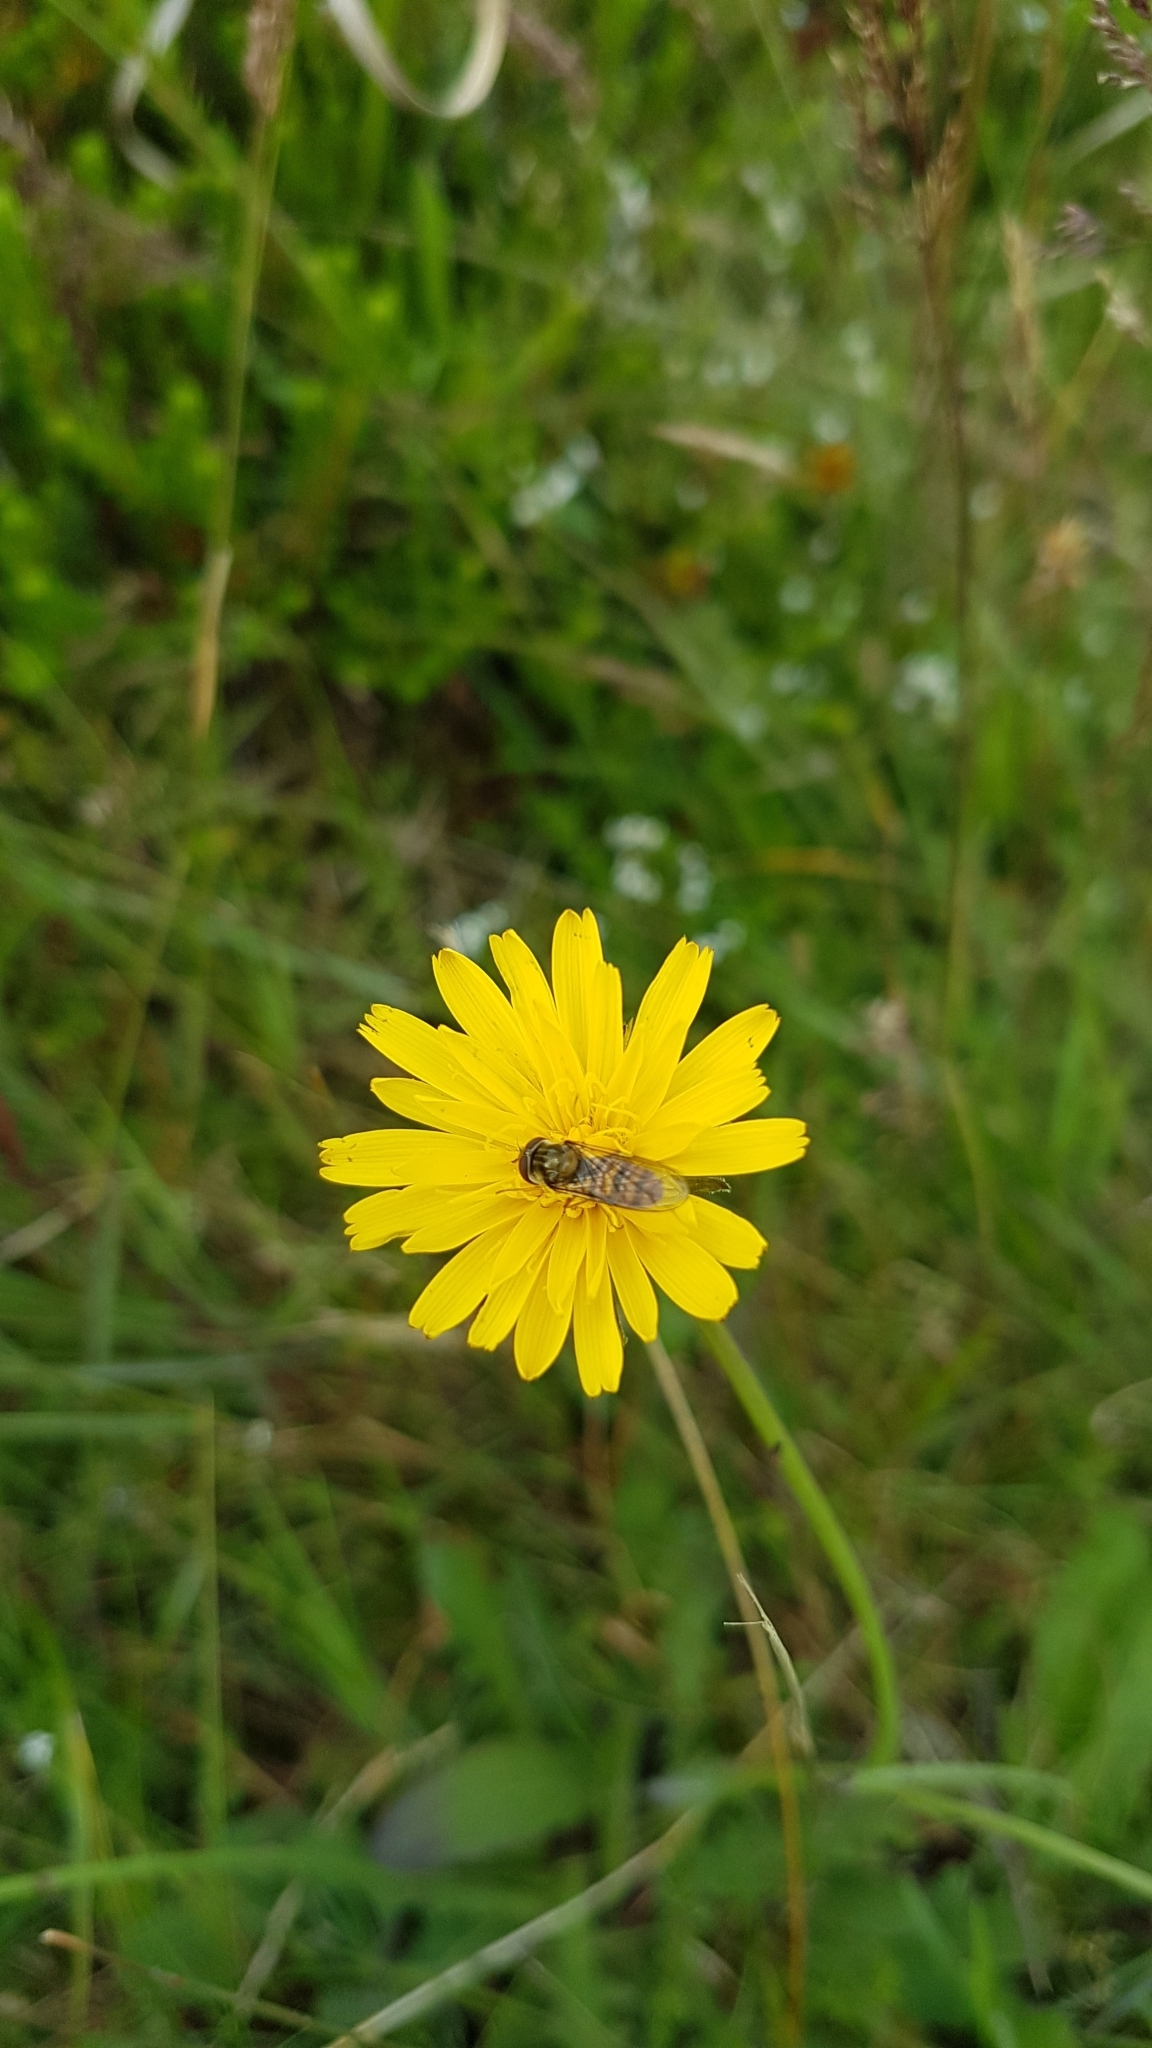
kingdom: Animalia
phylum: Arthropoda
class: Insecta
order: Diptera
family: Syrphidae
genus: Episyrphus
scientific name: Episyrphus balteatus
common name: Marmalade hoverfly
